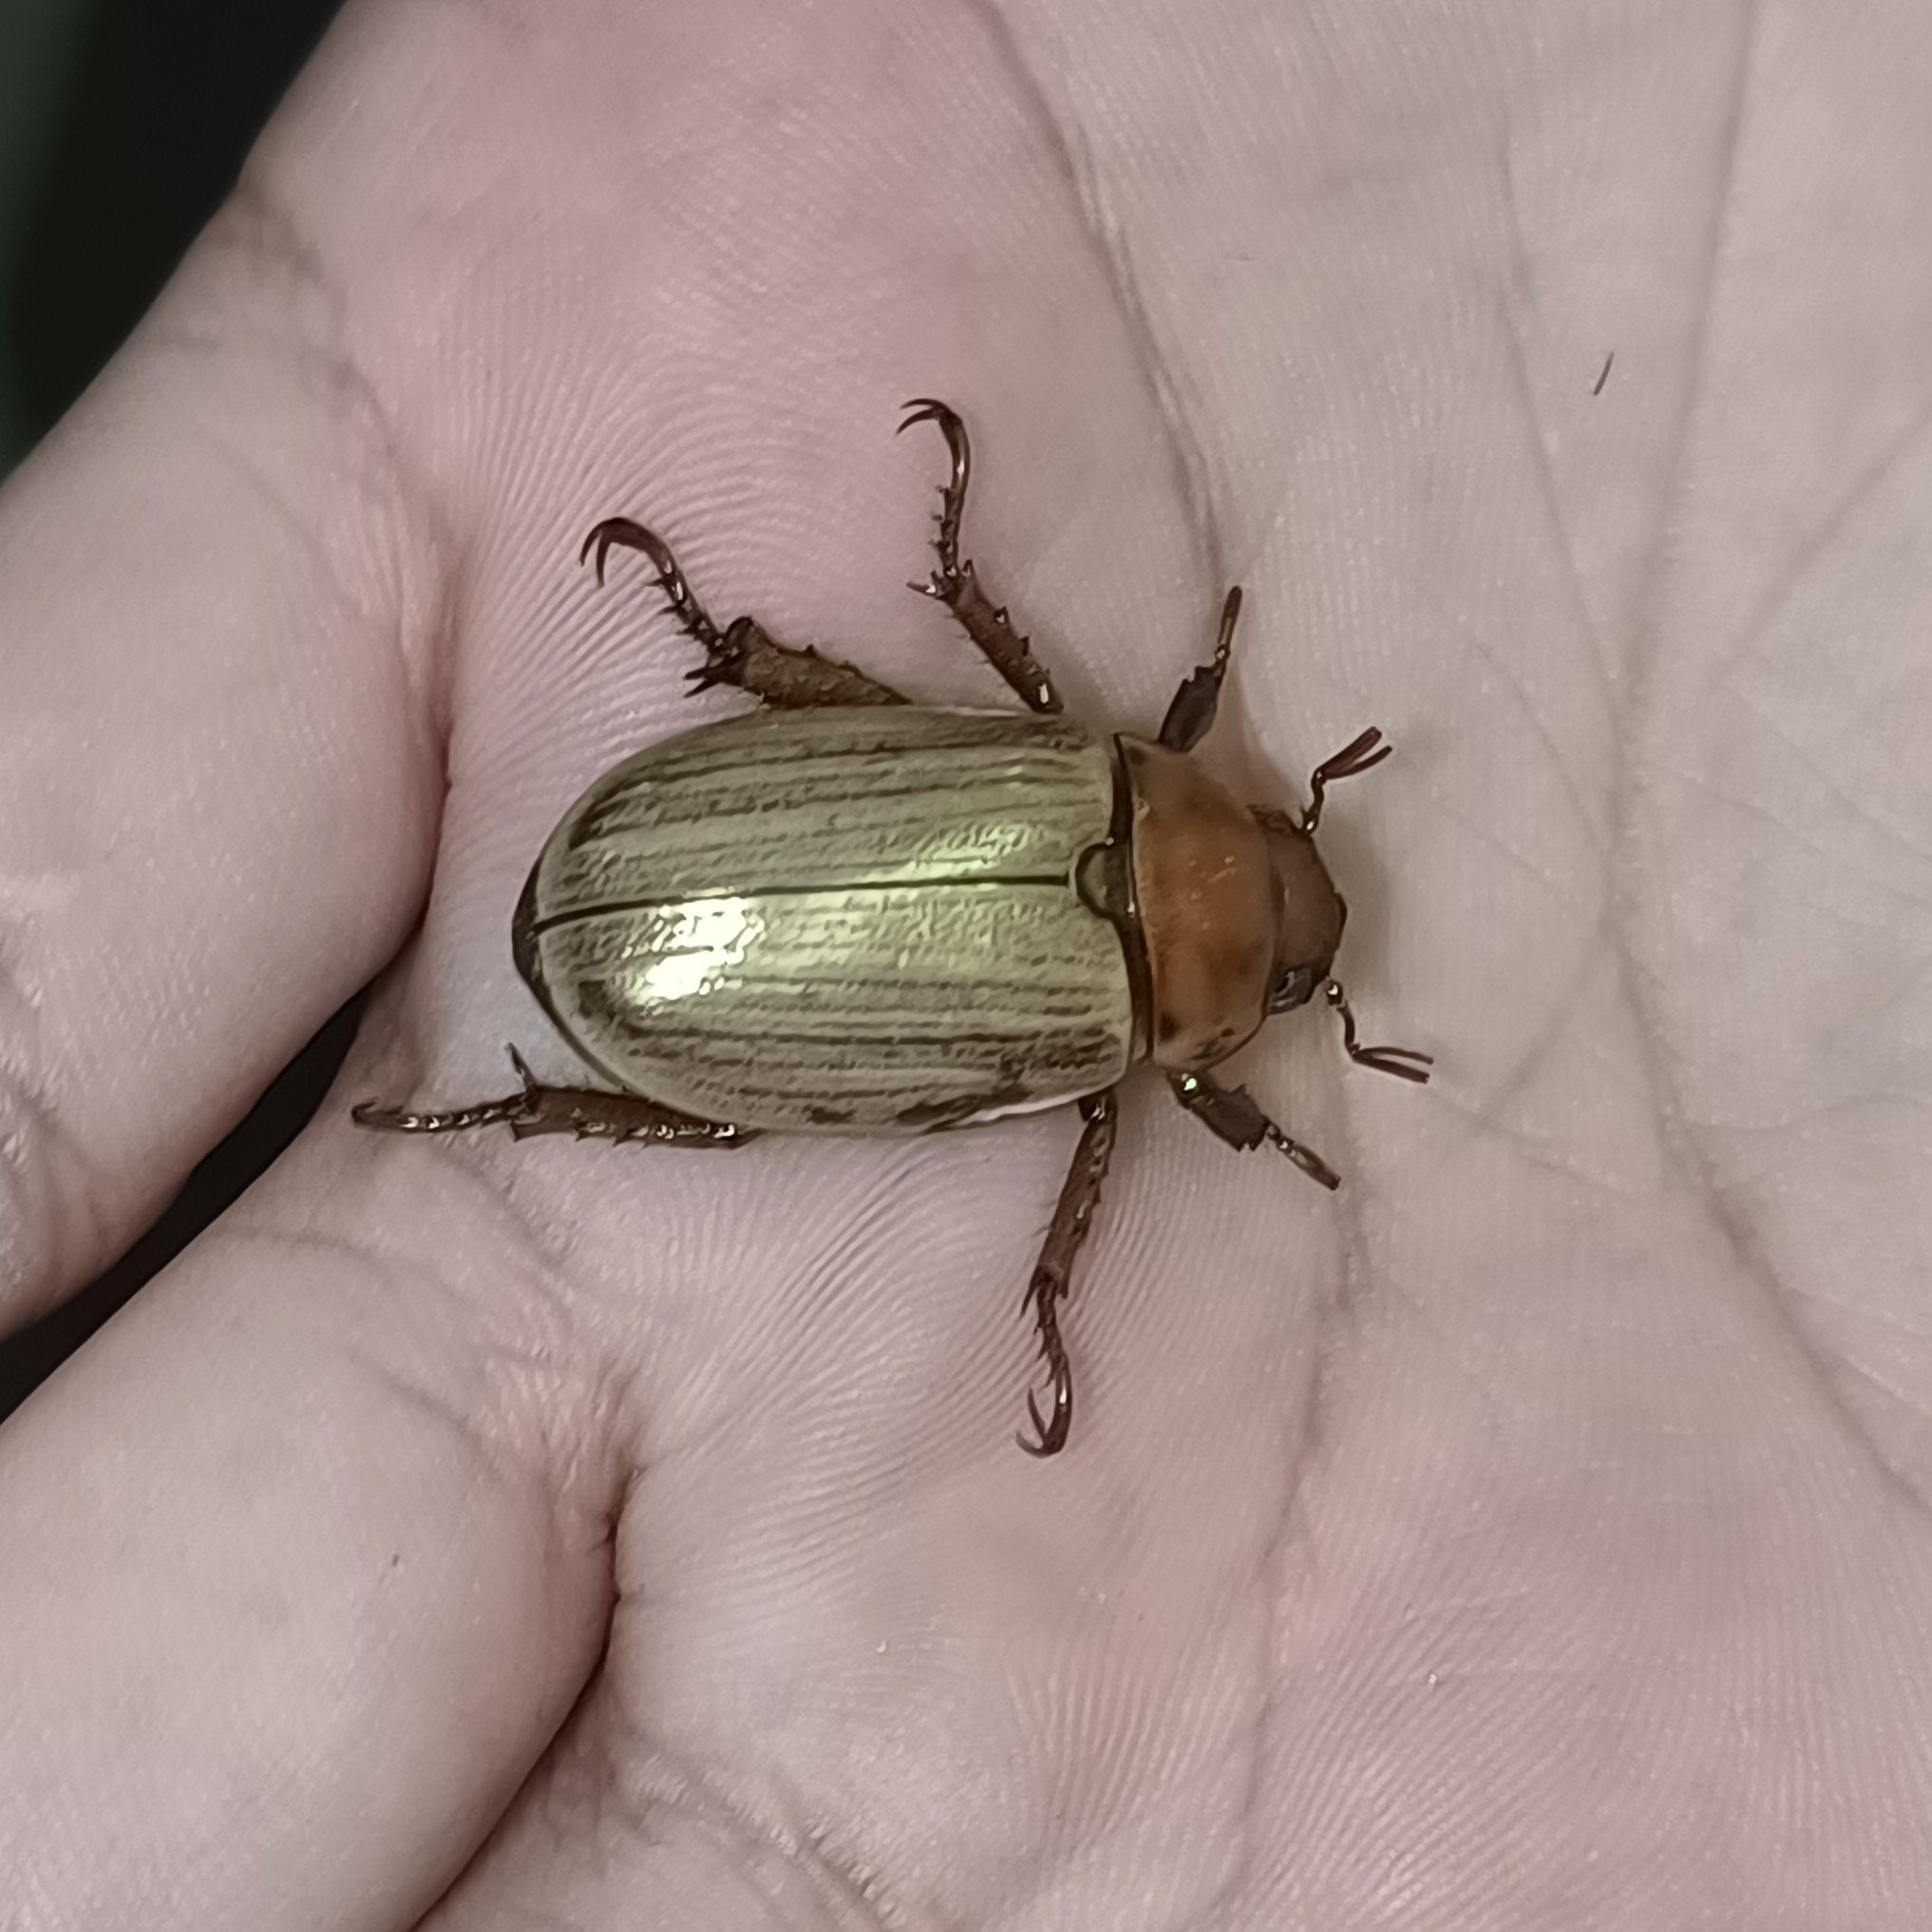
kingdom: Animalia
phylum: Arthropoda
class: Insecta
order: Coleoptera
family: Scarabaeidae
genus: Pelidnota
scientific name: Pelidnota virescens
